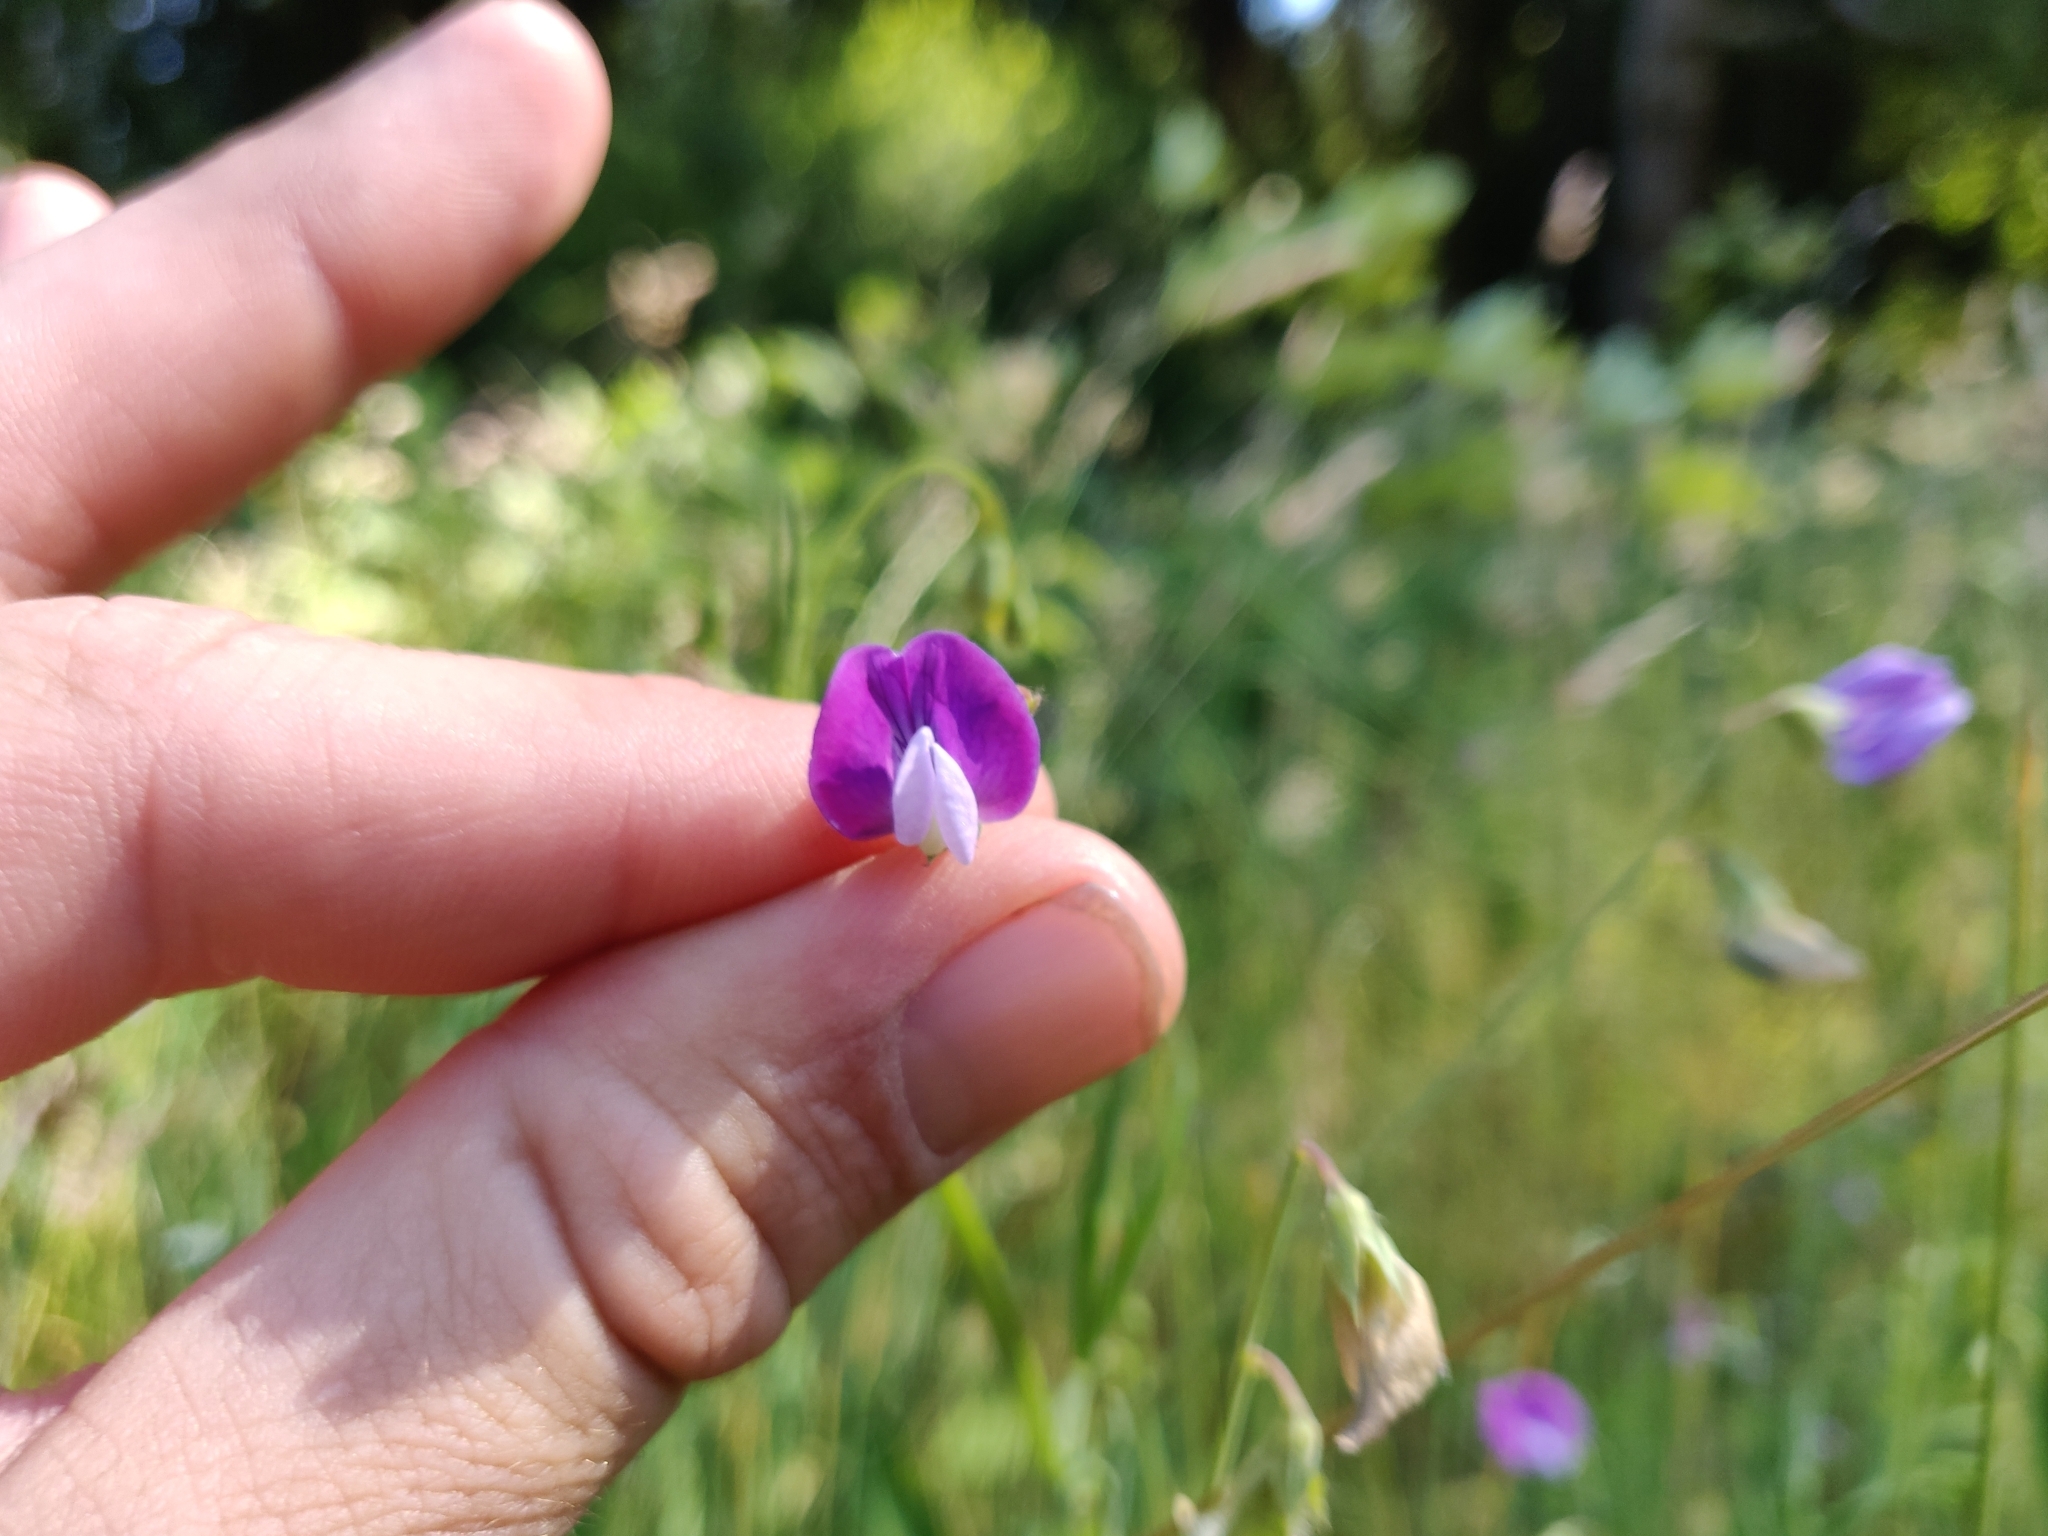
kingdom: Plantae
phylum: Tracheophyta
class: Magnoliopsida
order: Fabales
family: Fabaceae
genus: Lathyrus
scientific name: Lathyrus hirsutus
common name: Hairy vetchling
